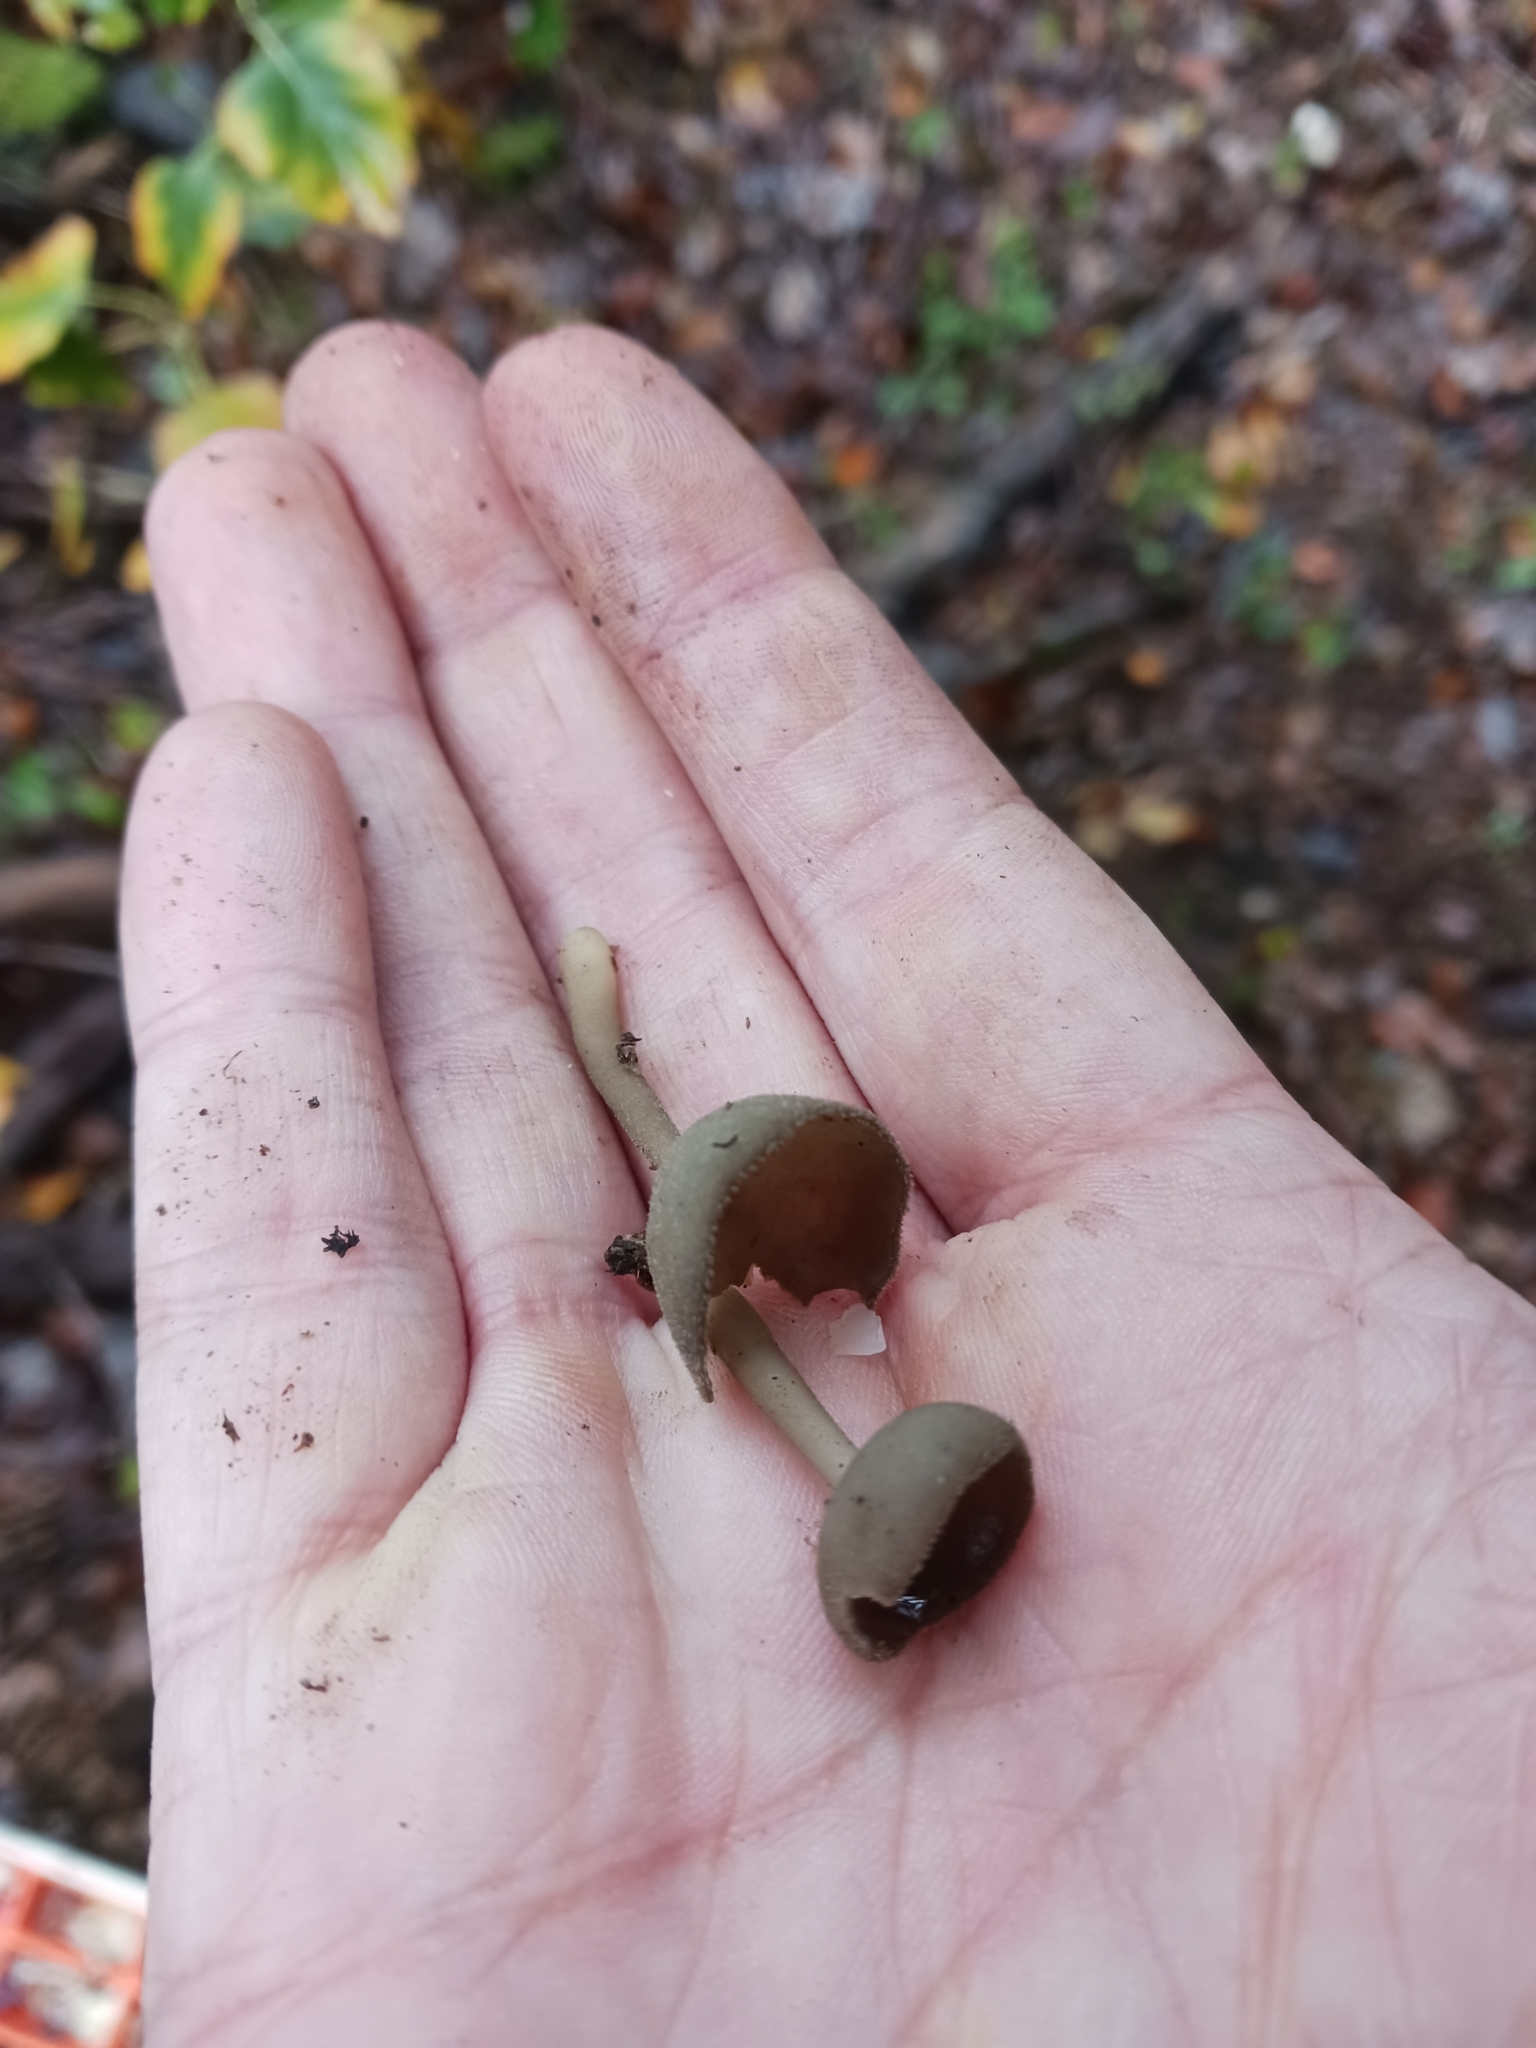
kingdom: Fungi
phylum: Ascomycota
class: Pezizomycetes
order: Pezizales
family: Helvellaceae
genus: Helvella
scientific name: Helvella macropus
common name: Felt saddle
